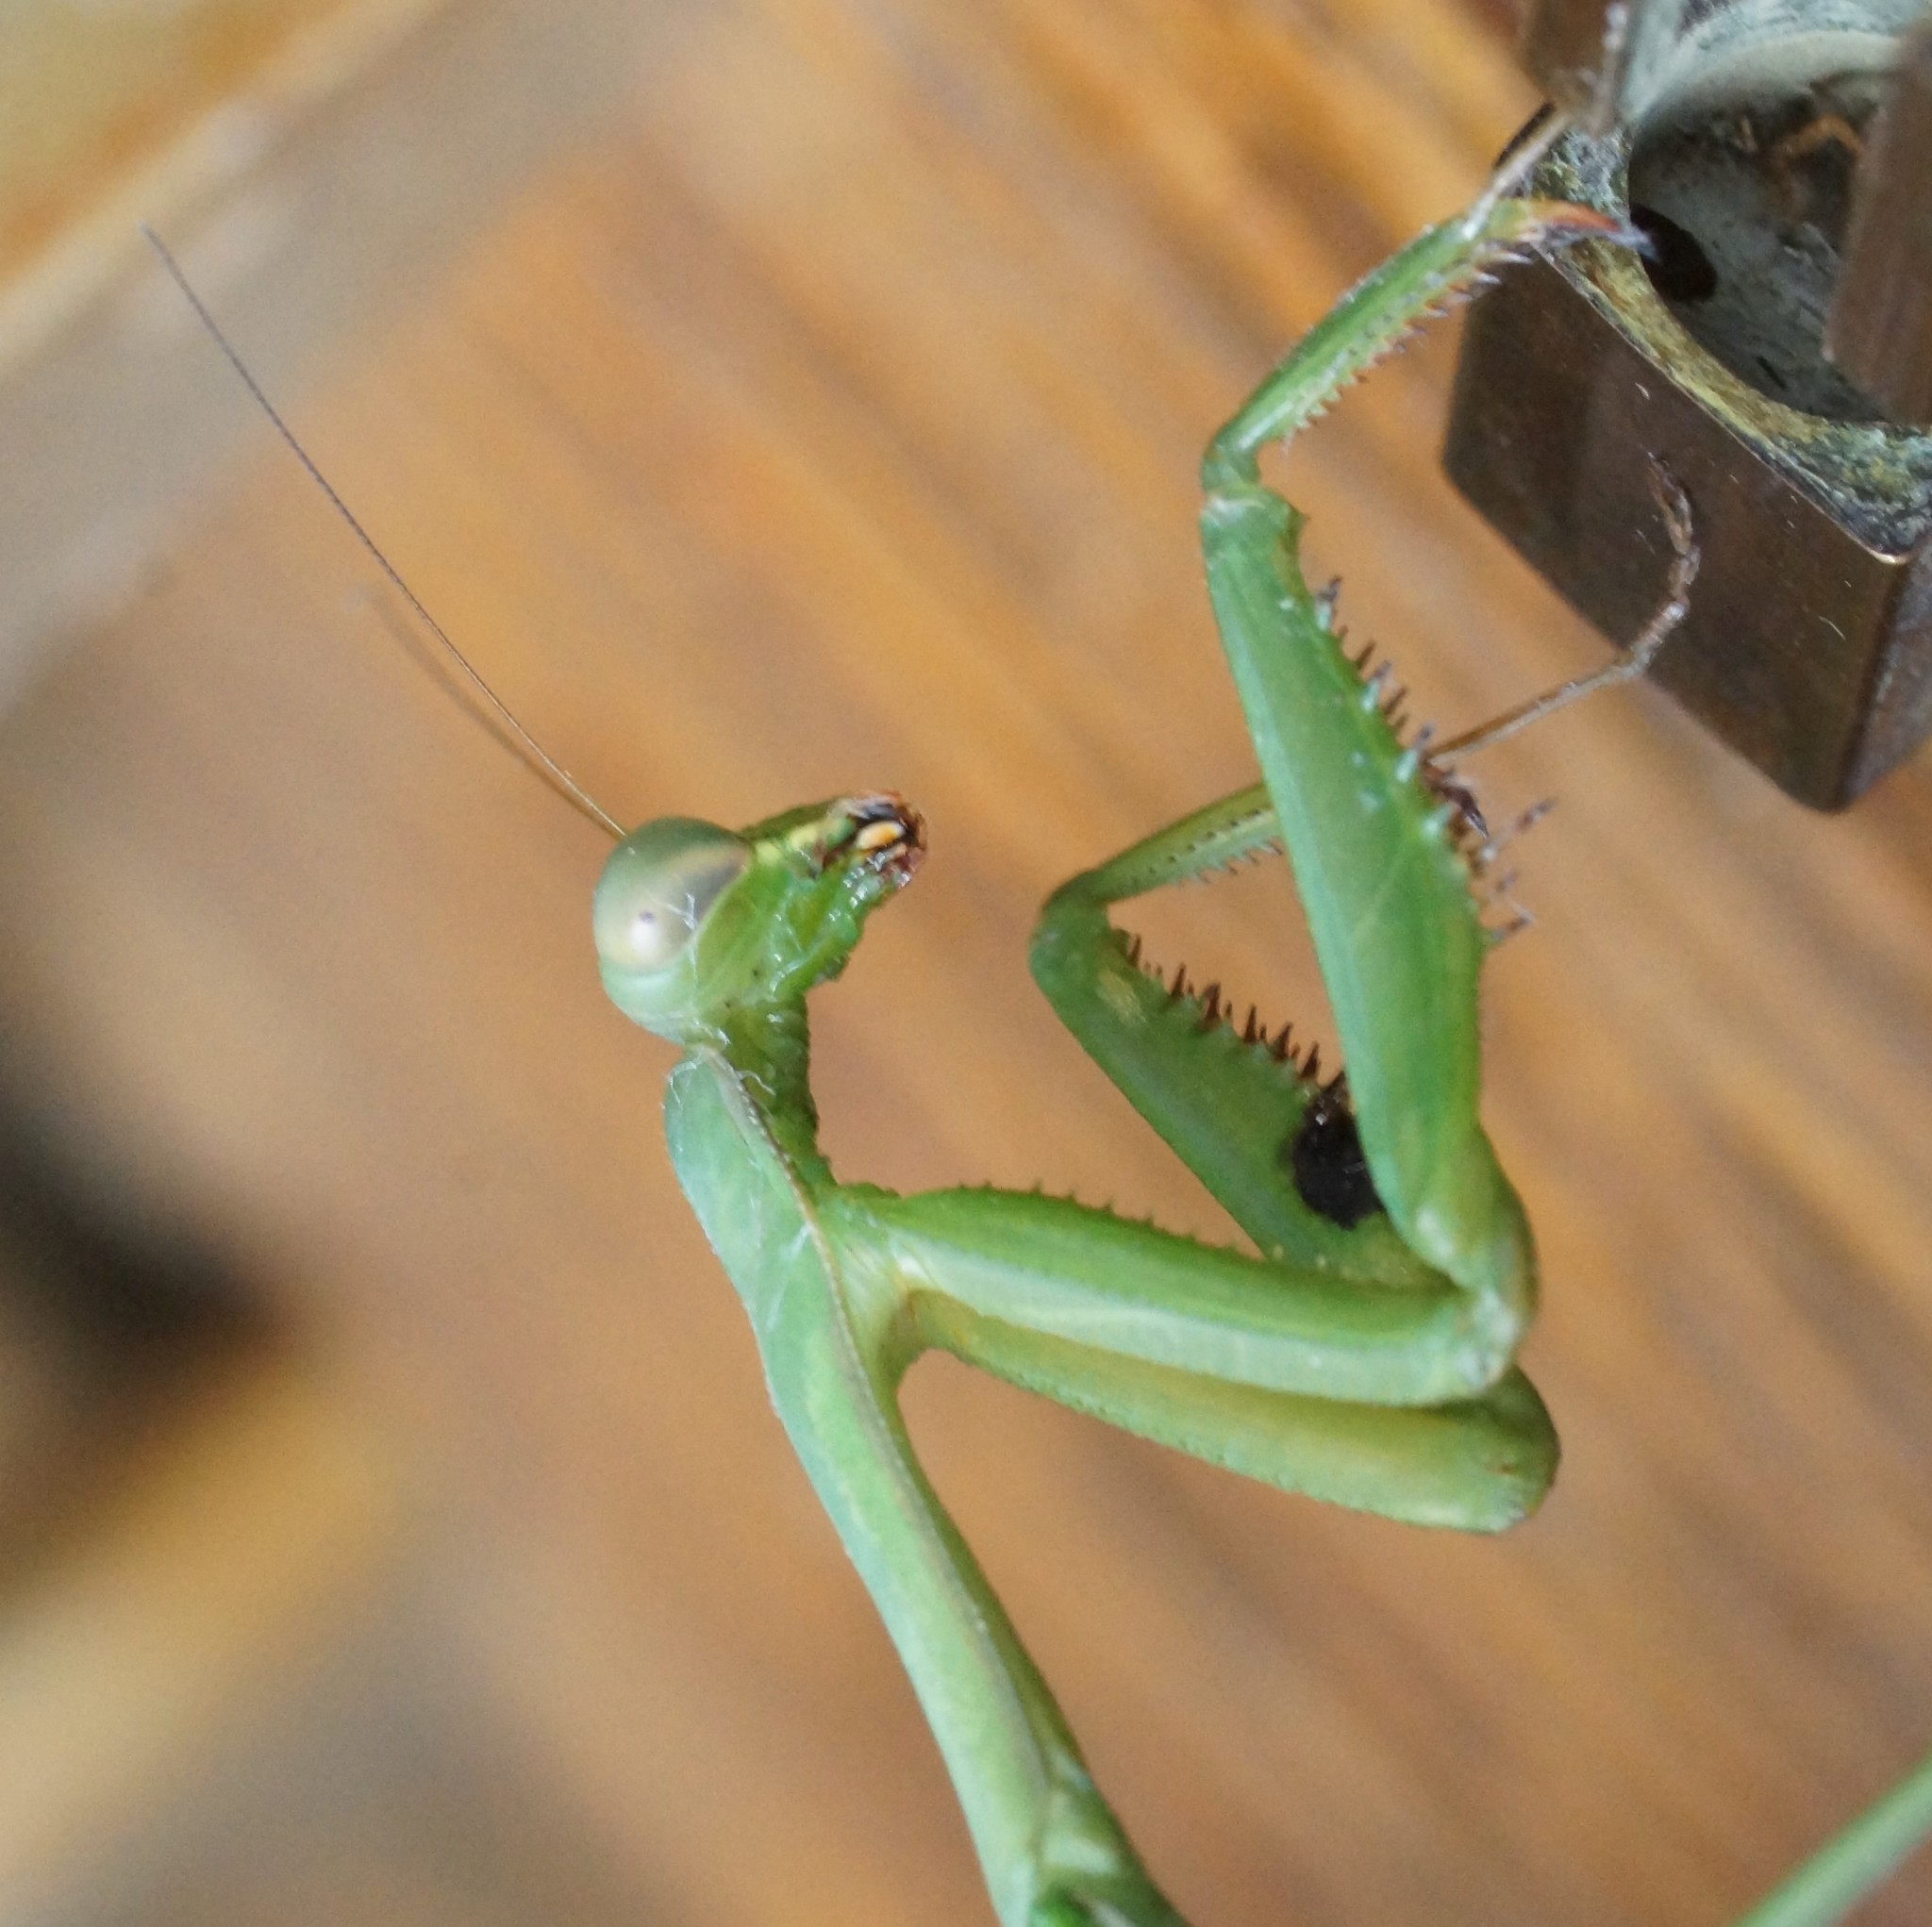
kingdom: Animalia
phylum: Arthropoda
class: Insecta
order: Mantodea
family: Mantidae
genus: Pseudomantis
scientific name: Pseudomantis albofimbriata
